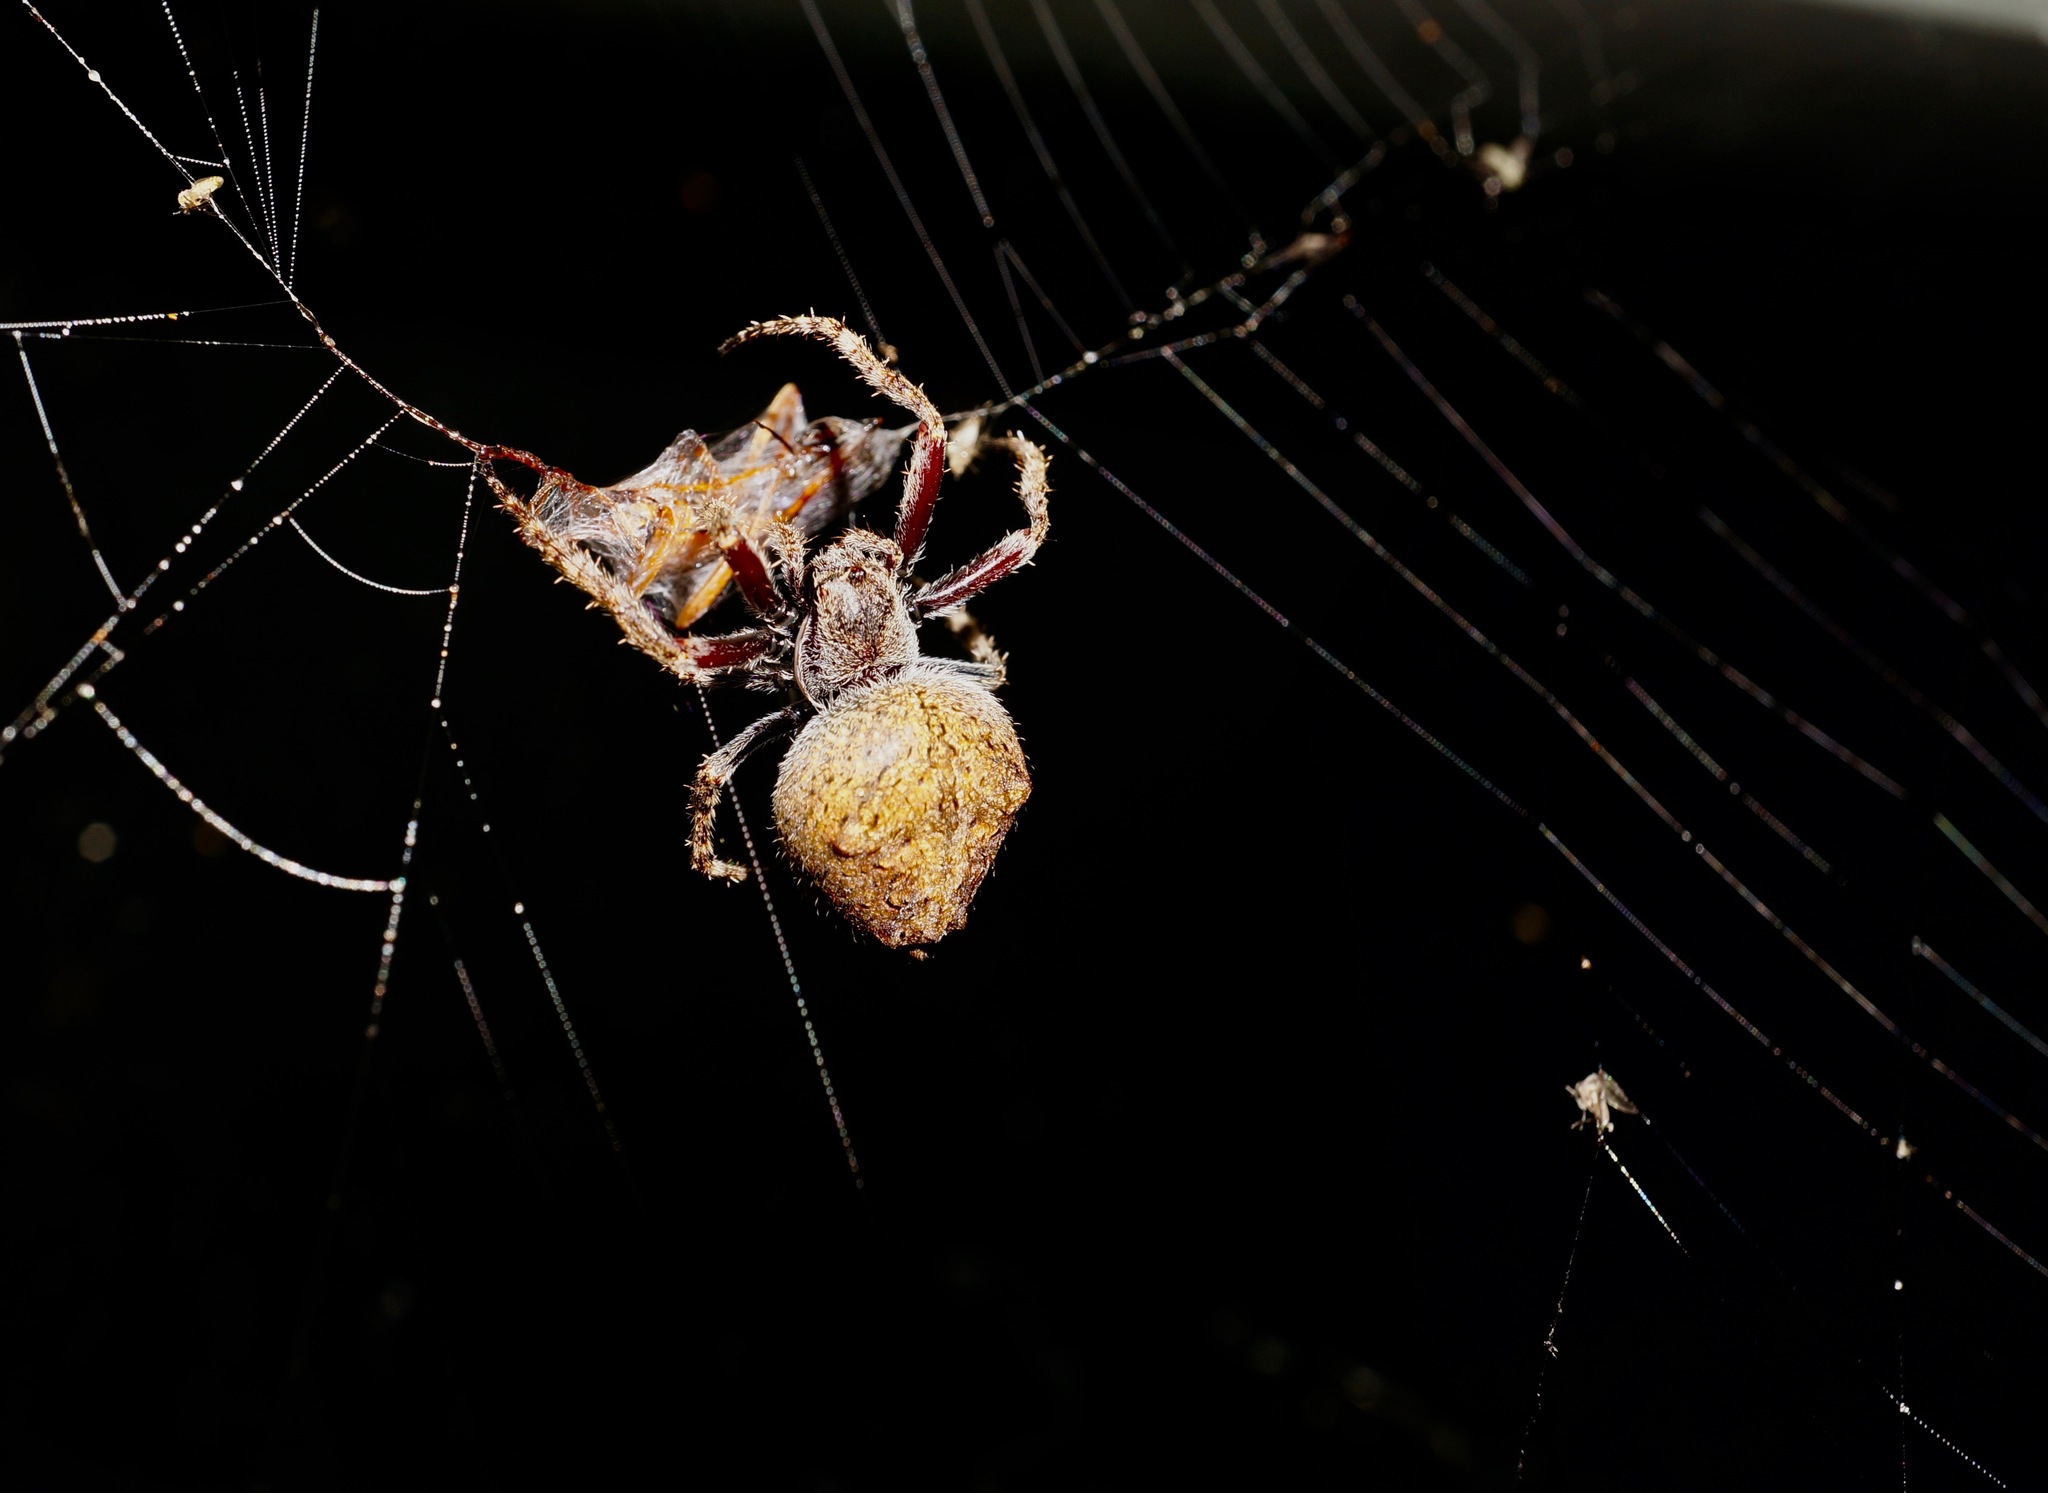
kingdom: Animalia
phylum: Arthropoda
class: Arachnida
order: Araneae
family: Araneidae
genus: Eriophora
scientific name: Eriophora pustulosa
